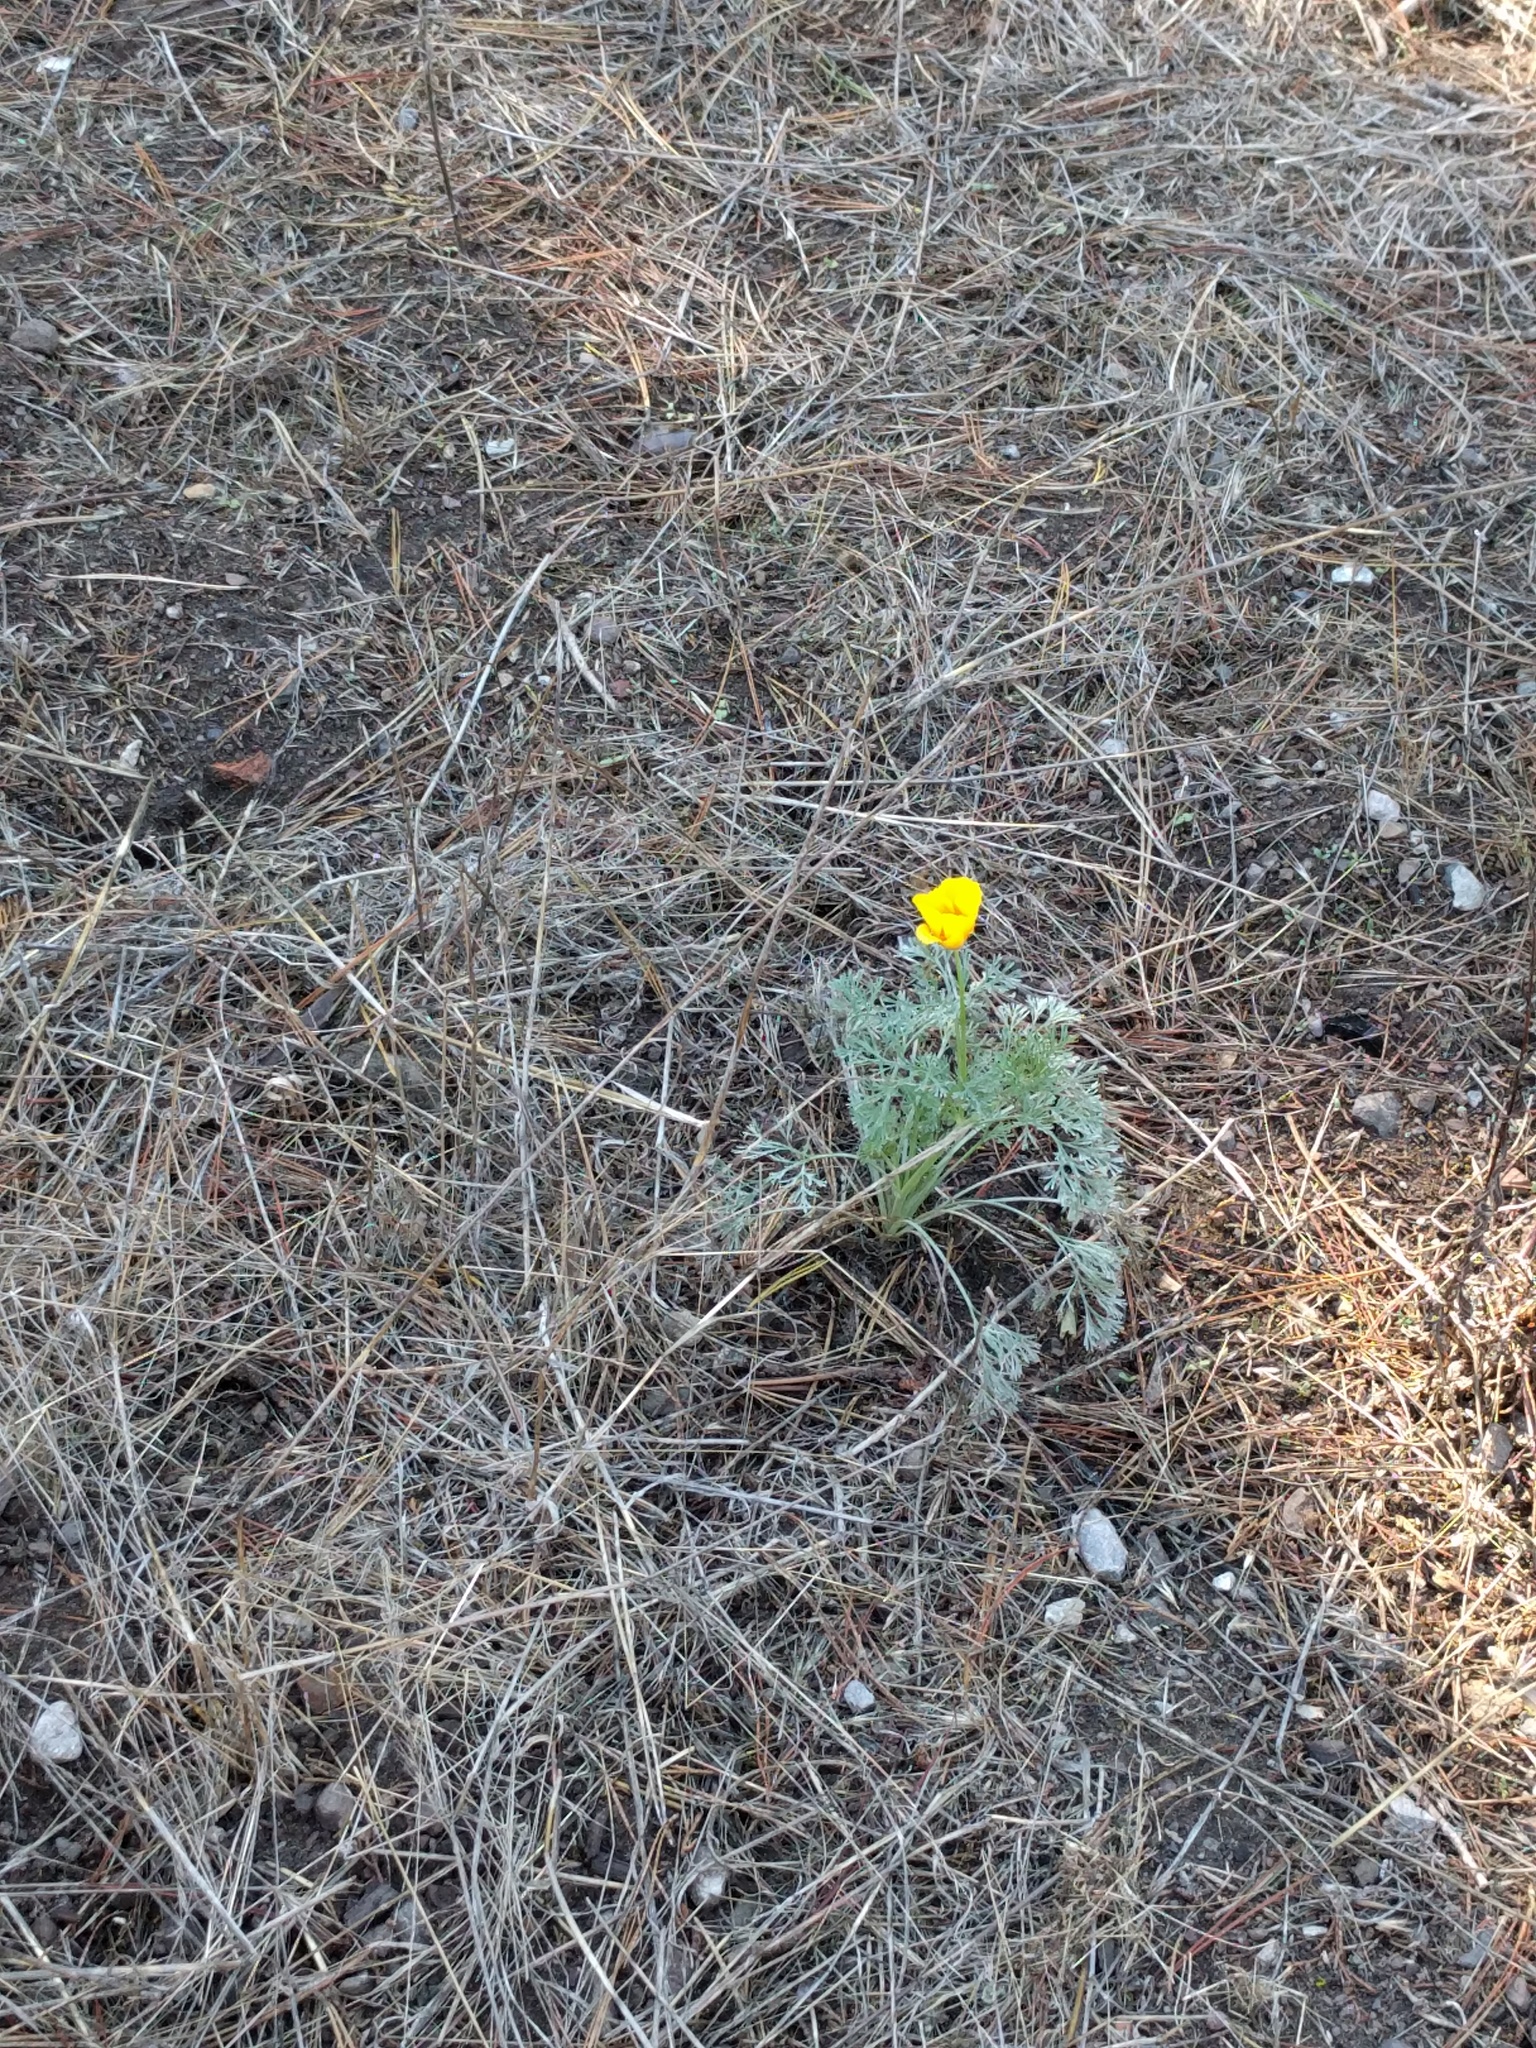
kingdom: Plantae
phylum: Tracheophyta
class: Magnoliopsida
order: Ranunculales
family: Papaveraceae
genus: Eschscholzia
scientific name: Eschscholzia californica
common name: California poppy
